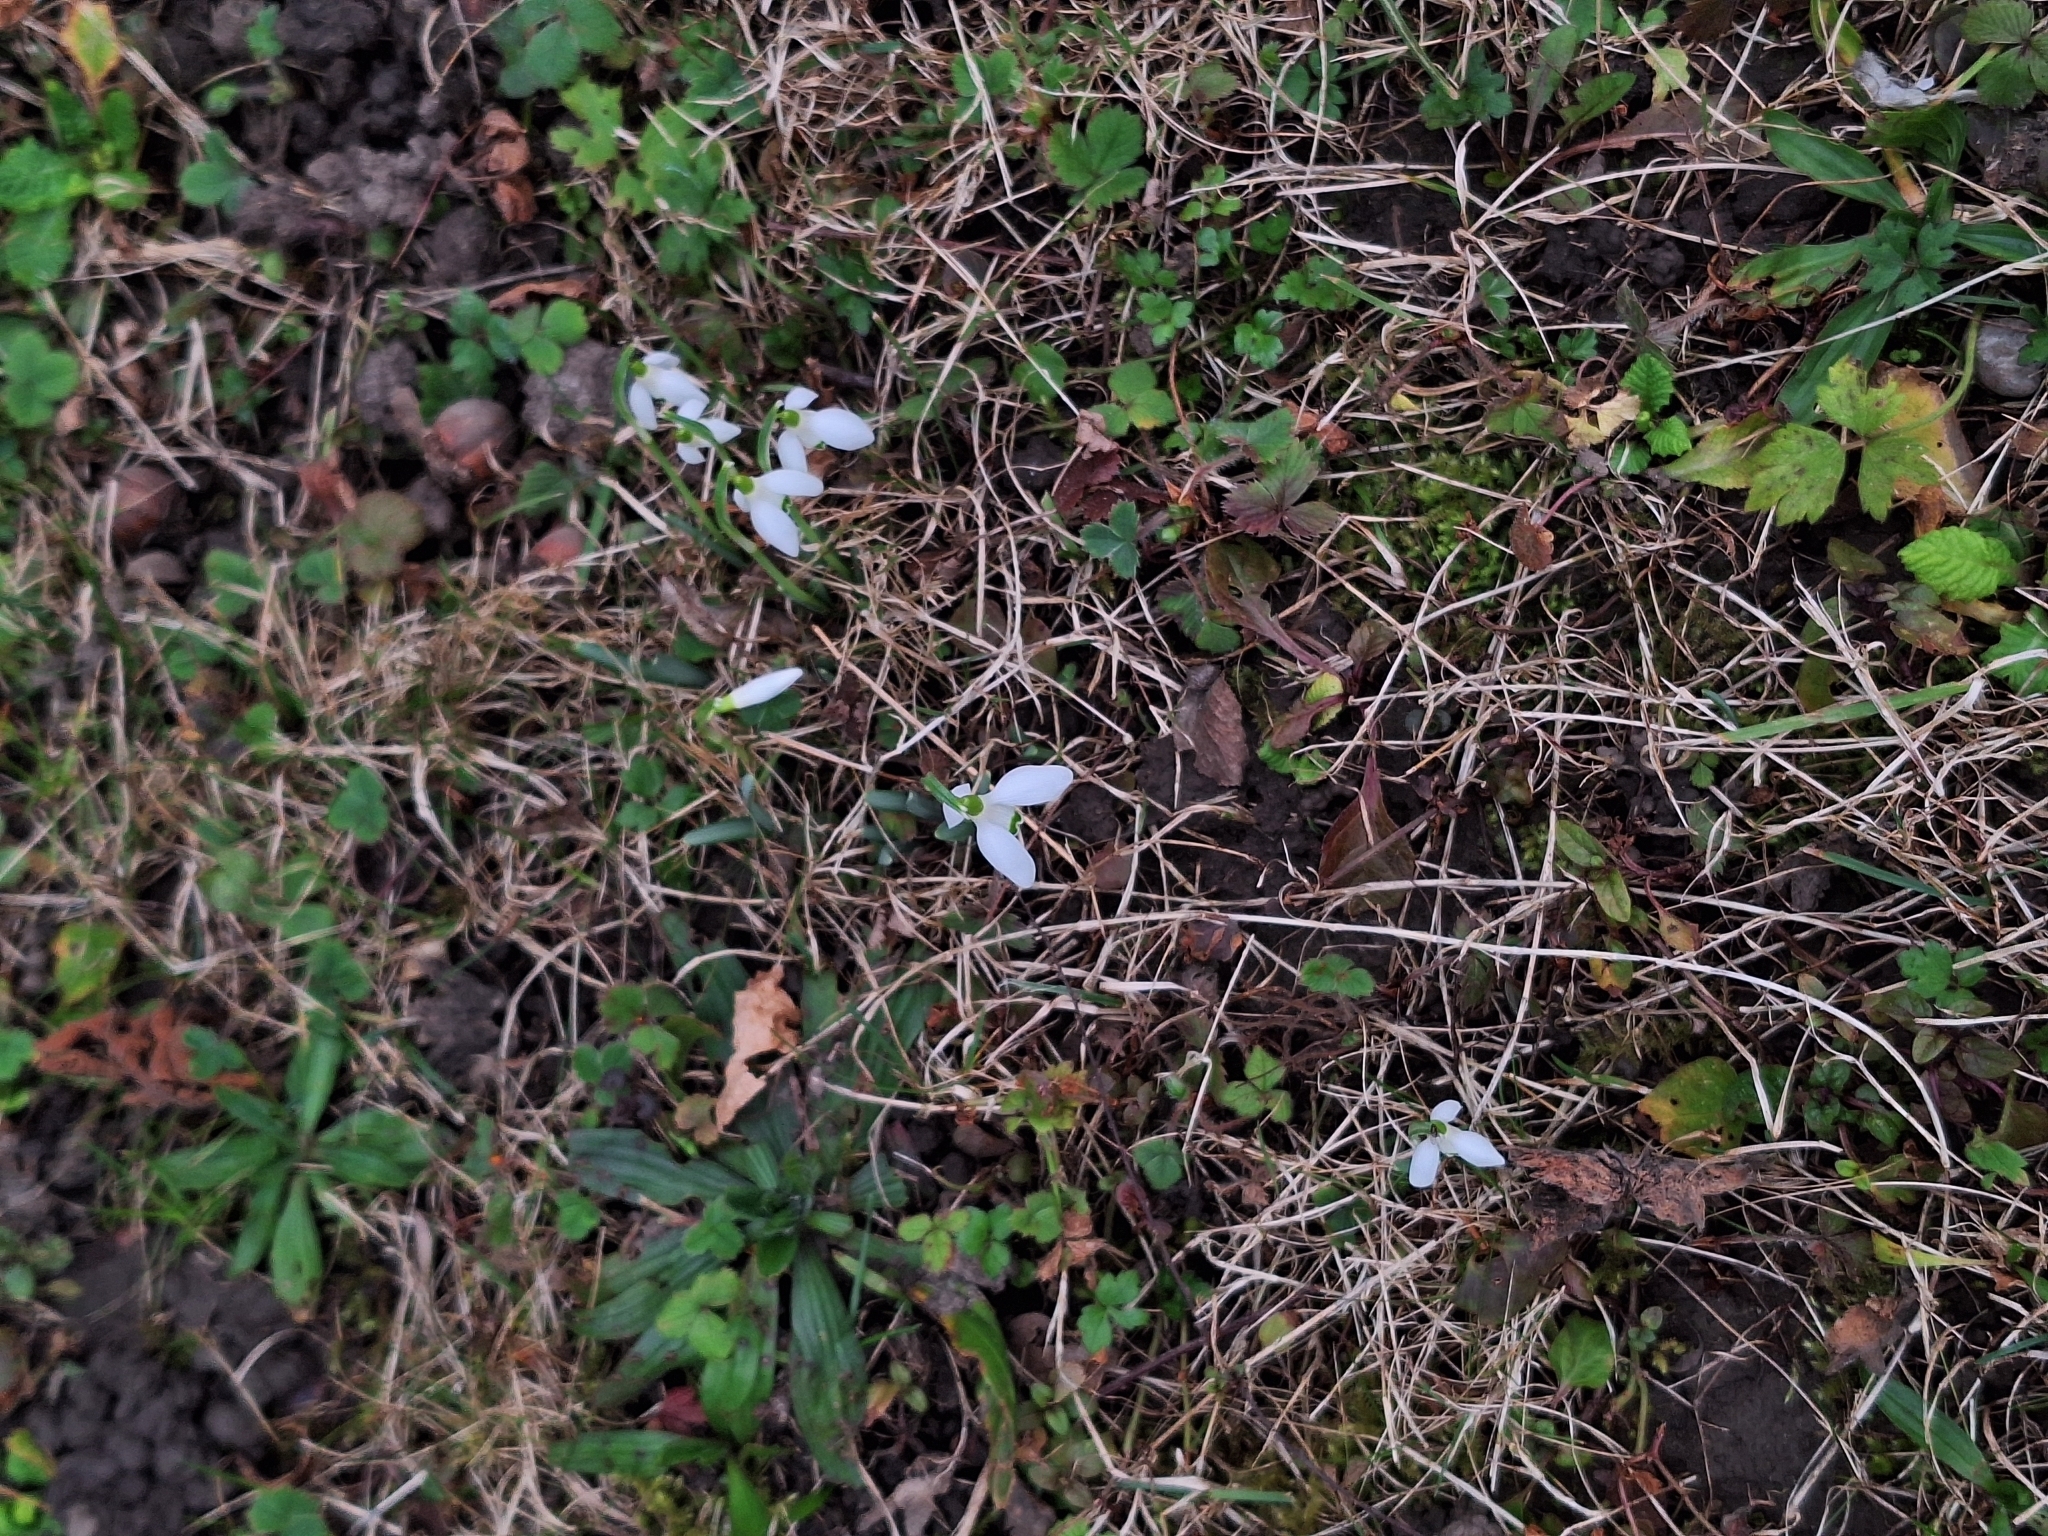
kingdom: Plantae
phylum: Tracheophyta
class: Liliopsida
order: Asparagales
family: Amaryllidaceae
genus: Galanthus
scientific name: Galanthus nivalis
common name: Snowdrop
